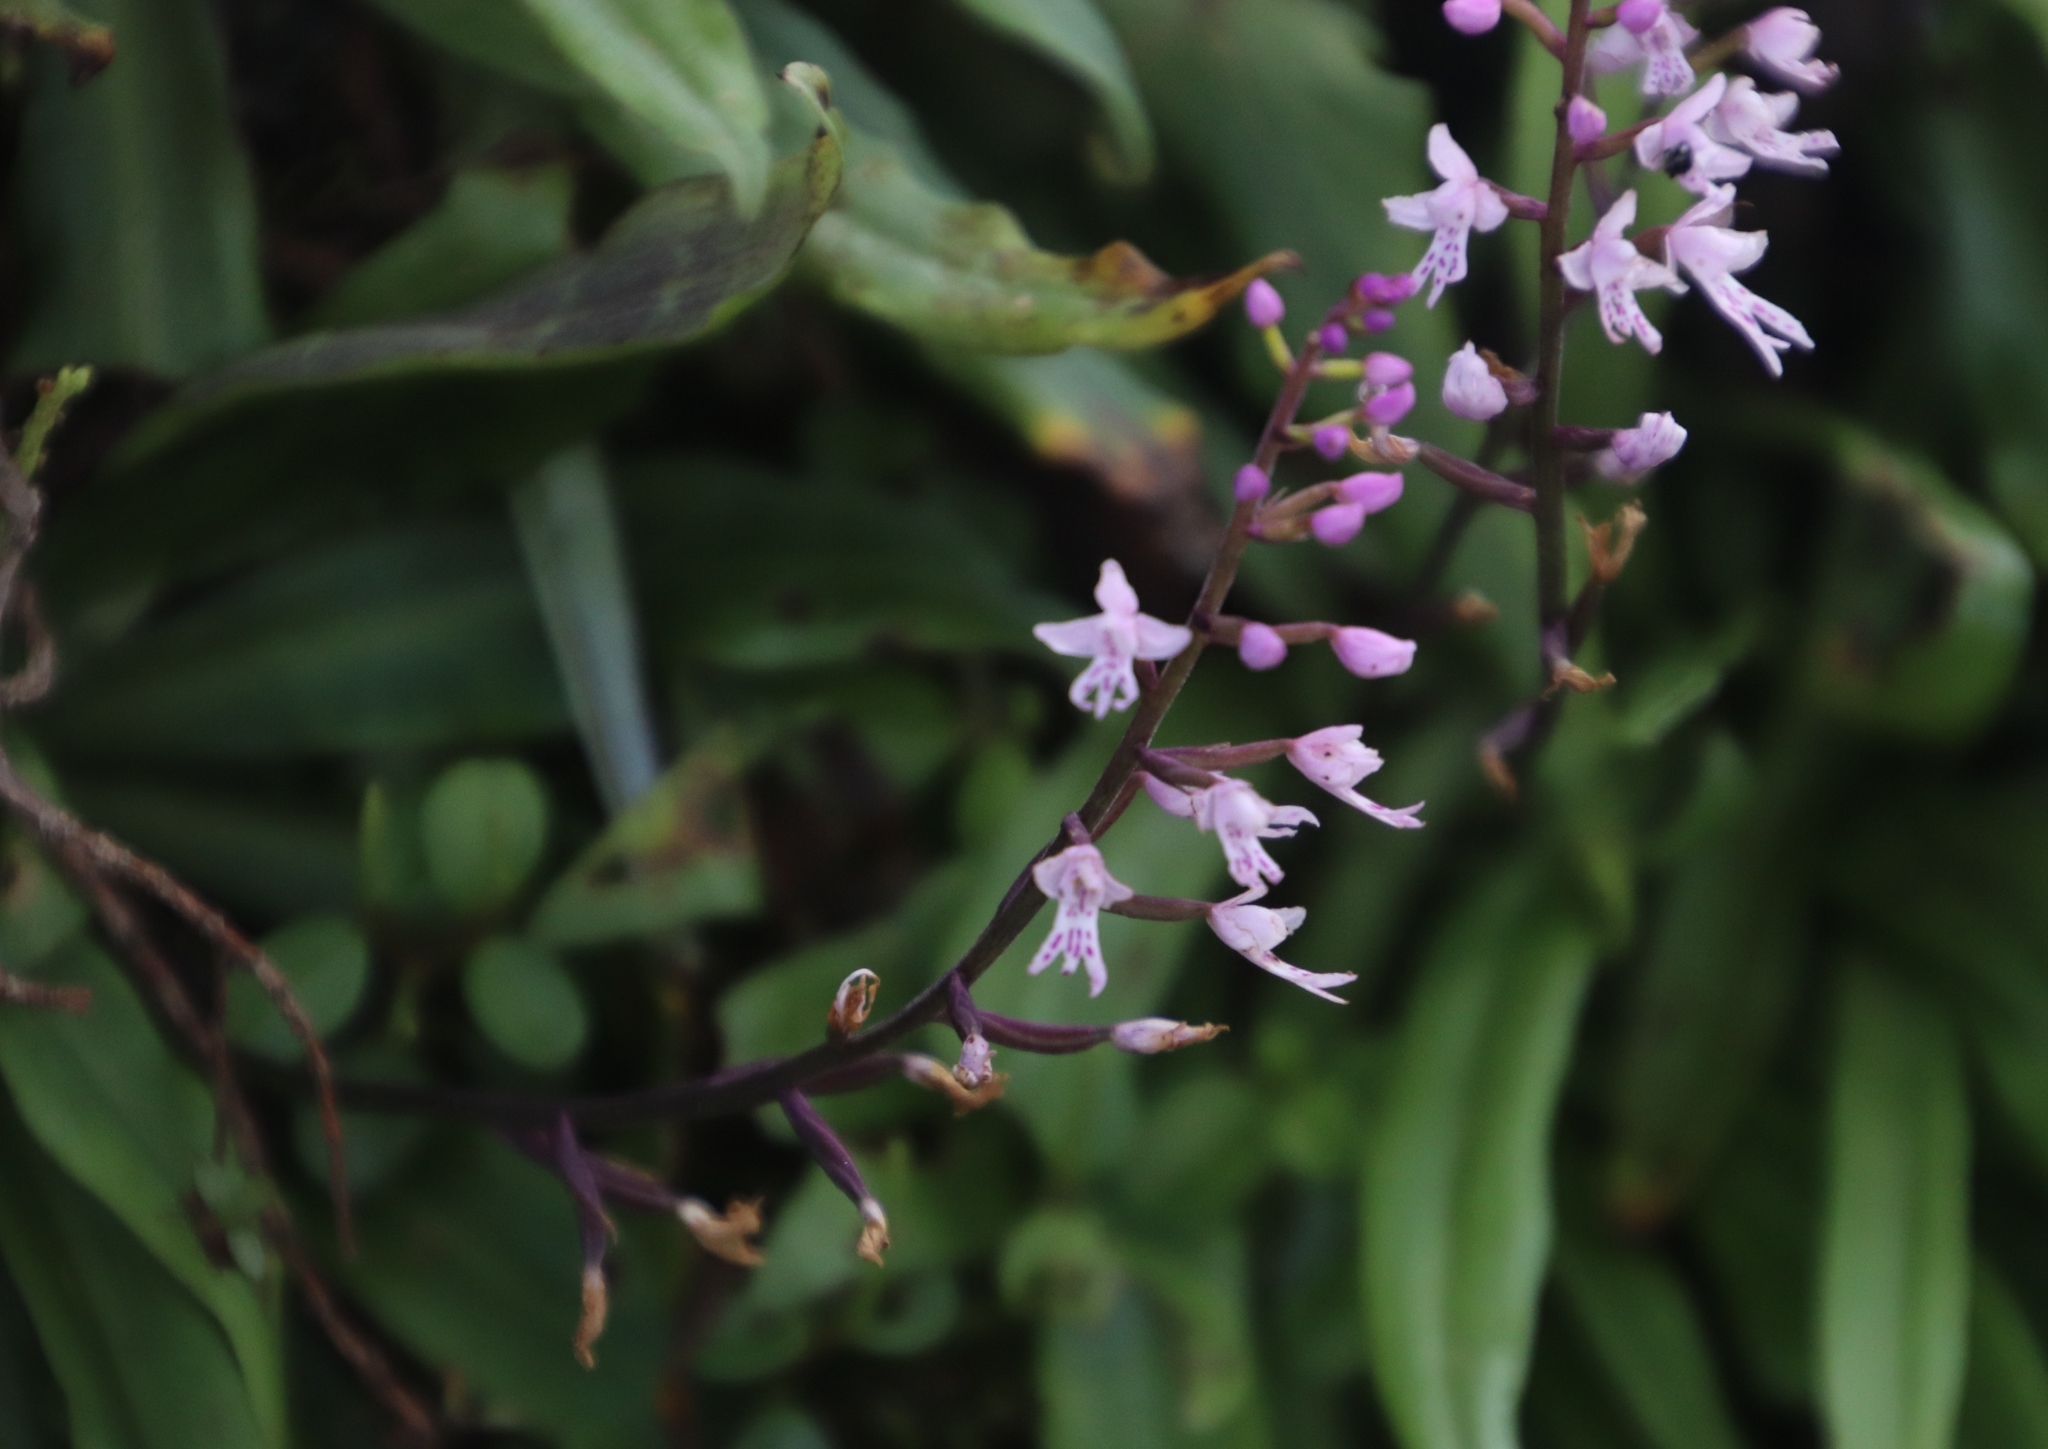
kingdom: Plantae
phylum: Tracheophyta
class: Liliopsida
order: Asparagales
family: Orchidaceae
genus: Stenoglottis
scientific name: Stenoglottis fimbriata
